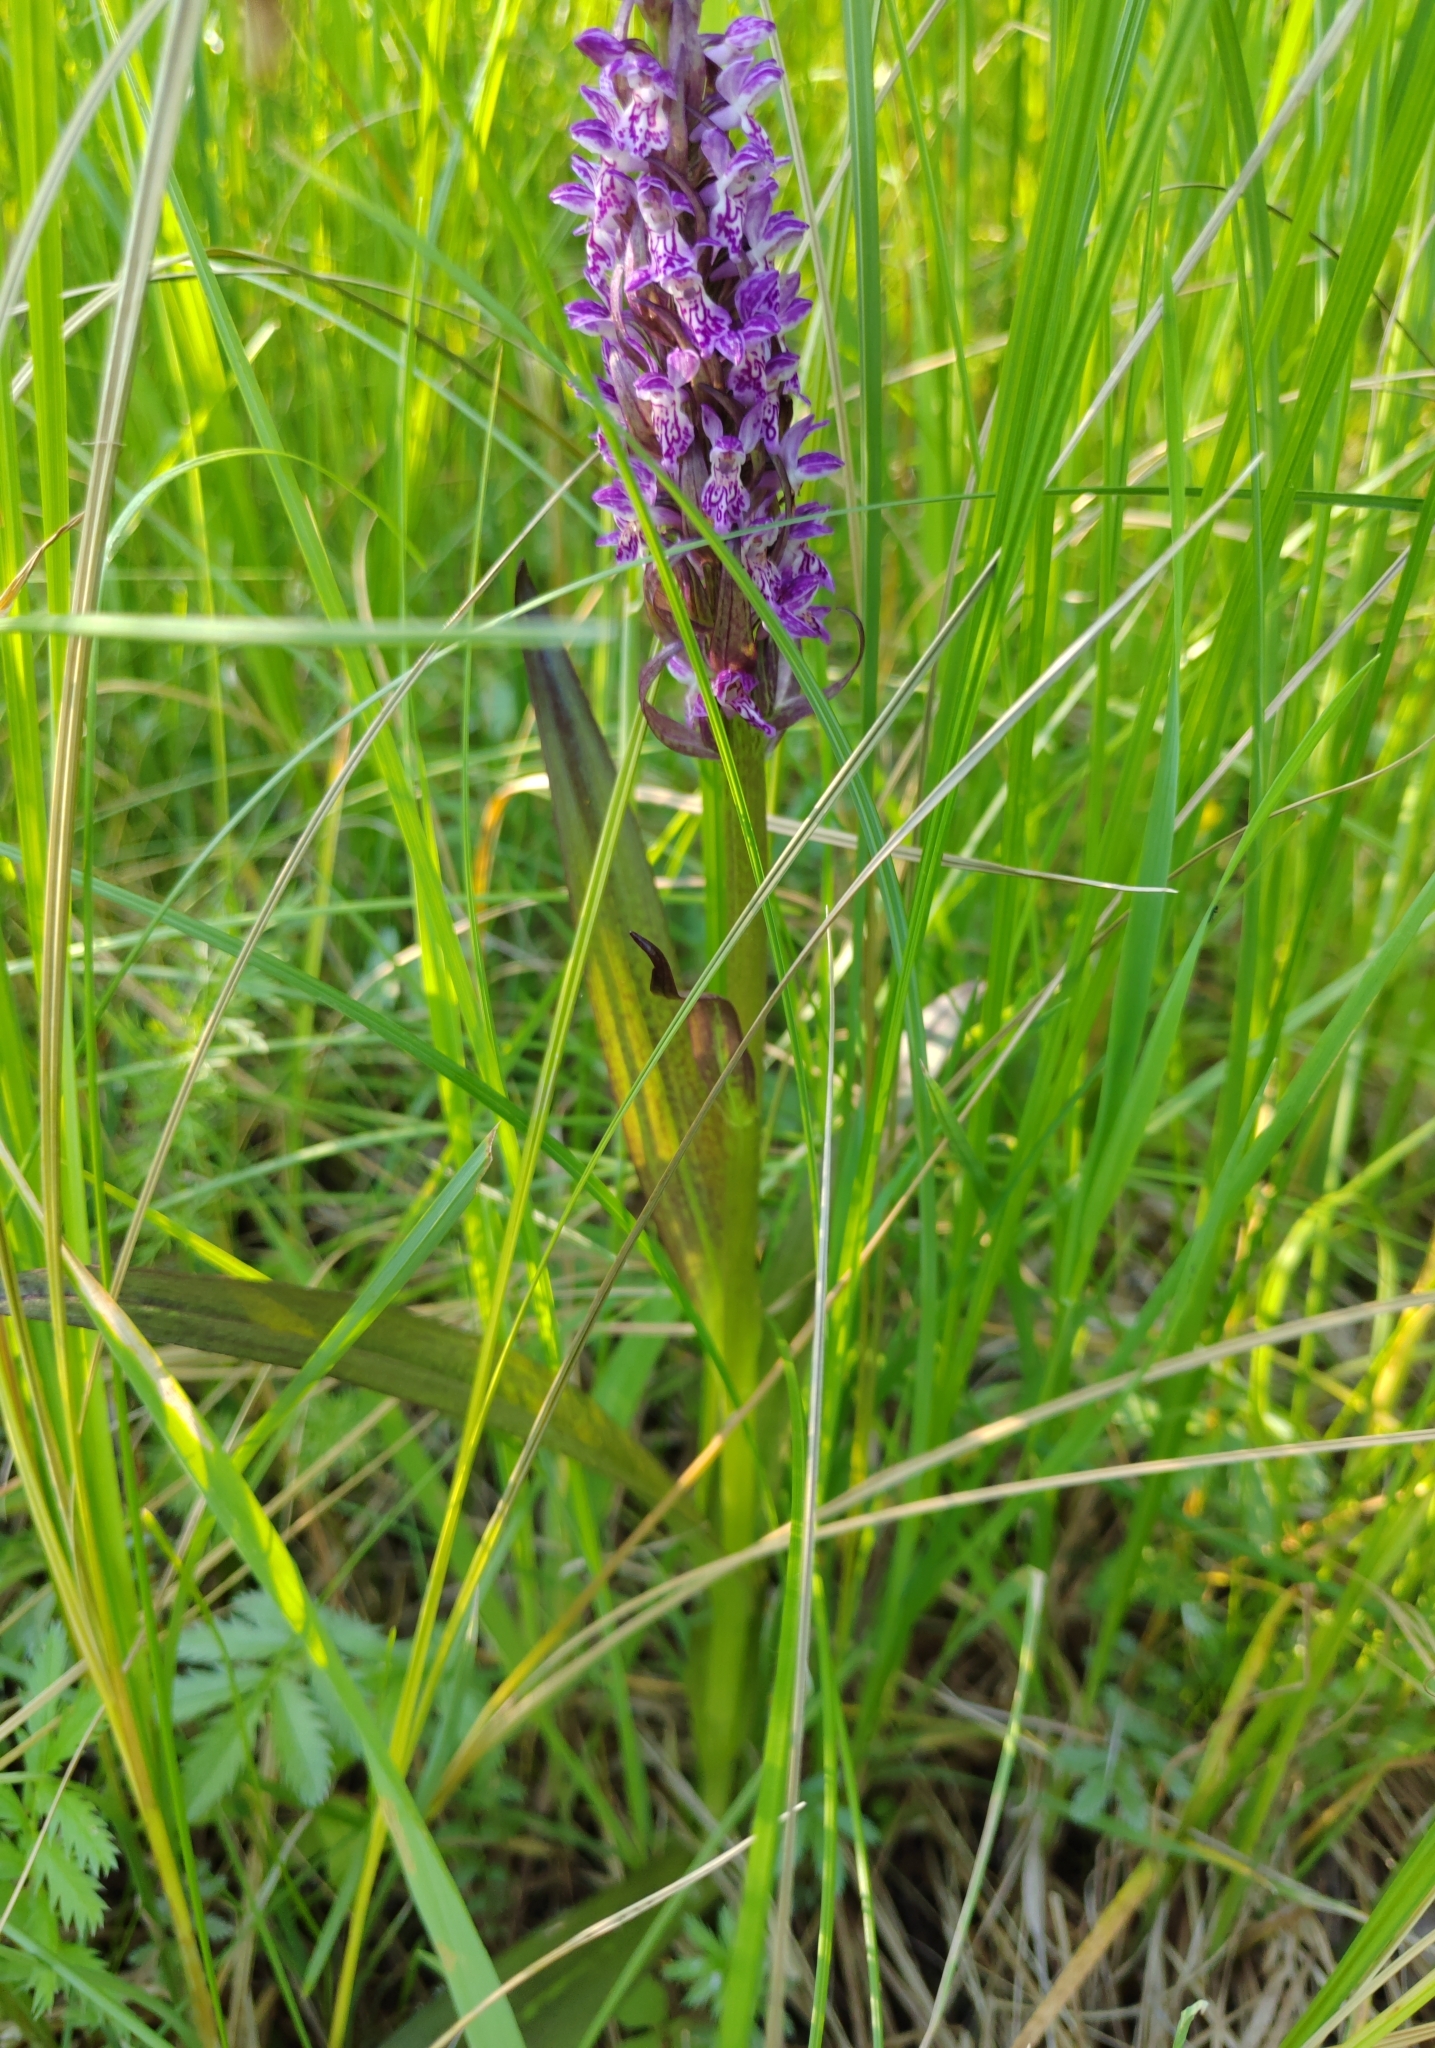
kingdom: Plantae
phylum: Tracheophyta
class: Liliopsida
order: Asparagales
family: Orchidaceae
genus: Dactylorhiza
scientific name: Dactylorhiza incarnata
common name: Early marsh-orchid
